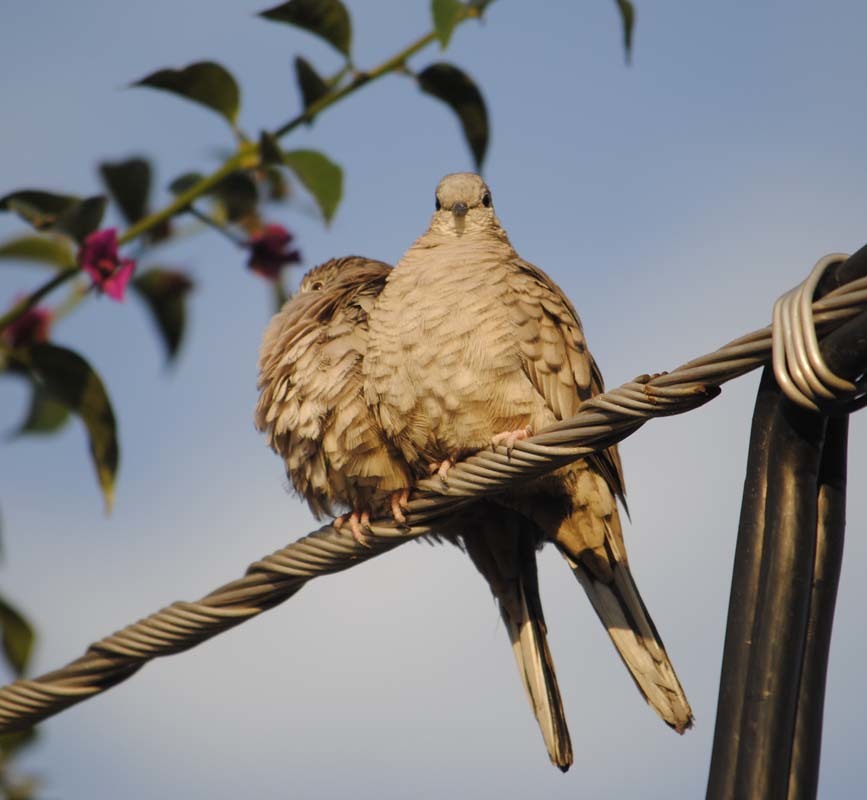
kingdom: Animalia
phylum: Chordata
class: Aves
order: Columbiformes
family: Columbidae
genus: Columbina
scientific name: Columbina inca
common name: Inca dove
